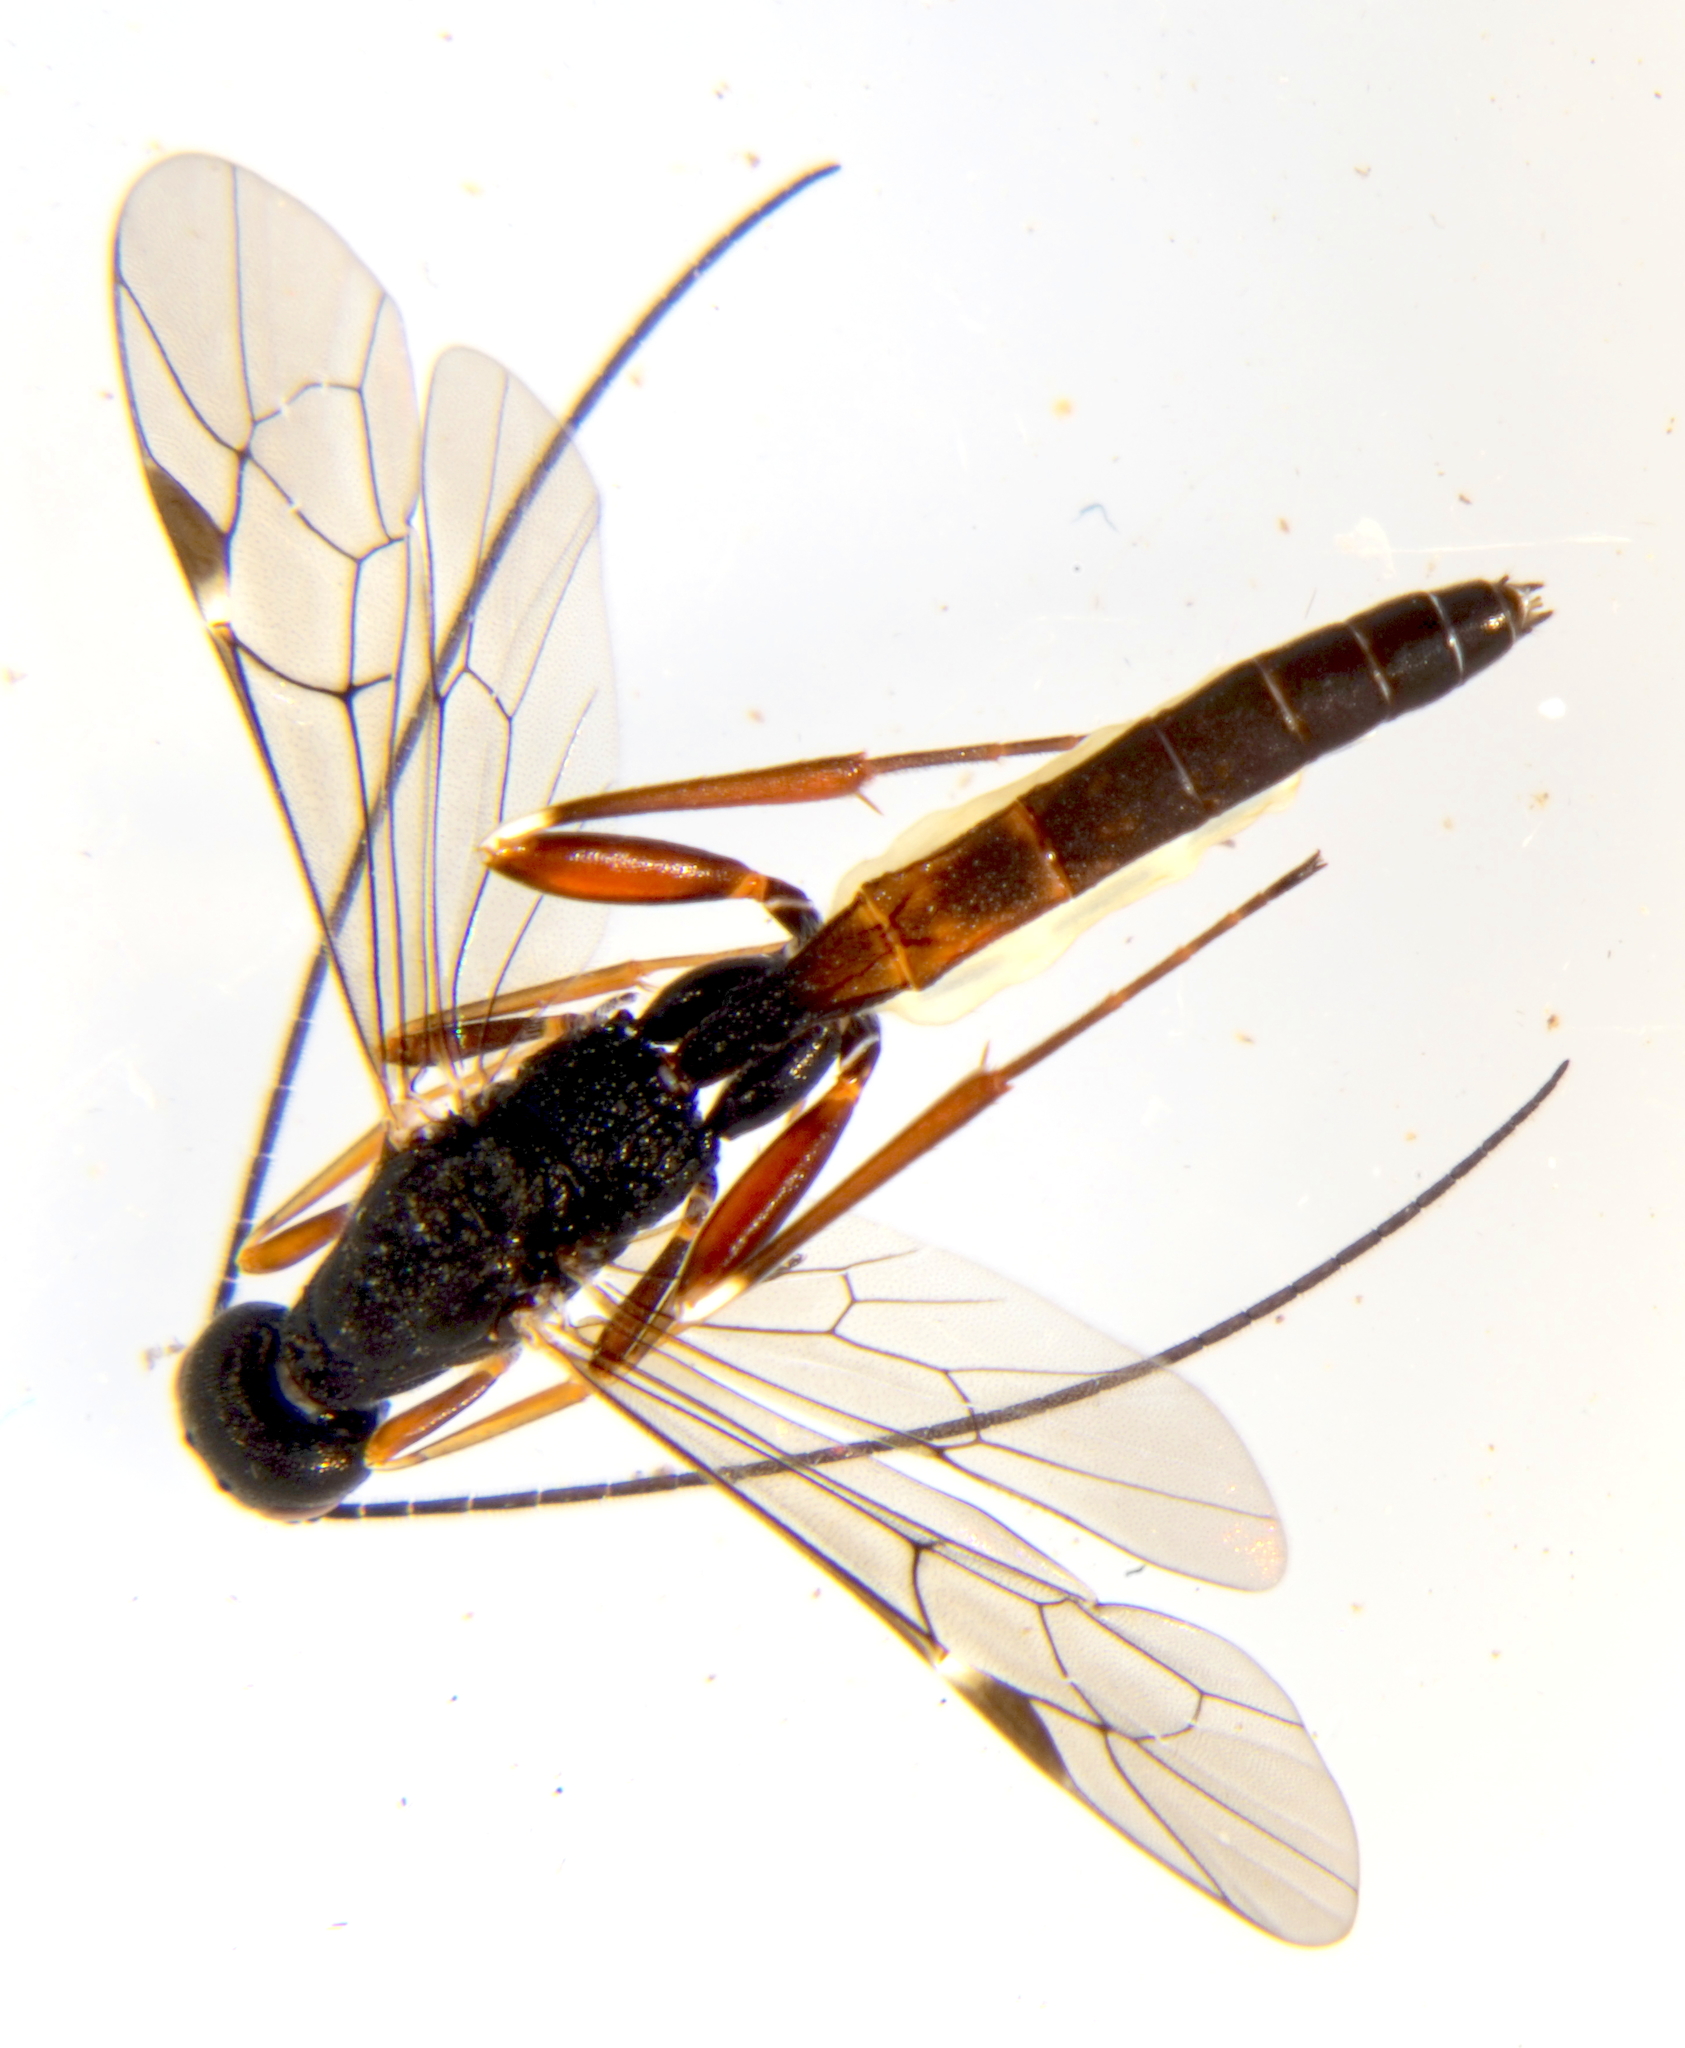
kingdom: Animalia
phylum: Arthropoda
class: Insecta
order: Hymenoptera
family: Ichneumonidae
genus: Xorides
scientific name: Xorides gracilicornis
